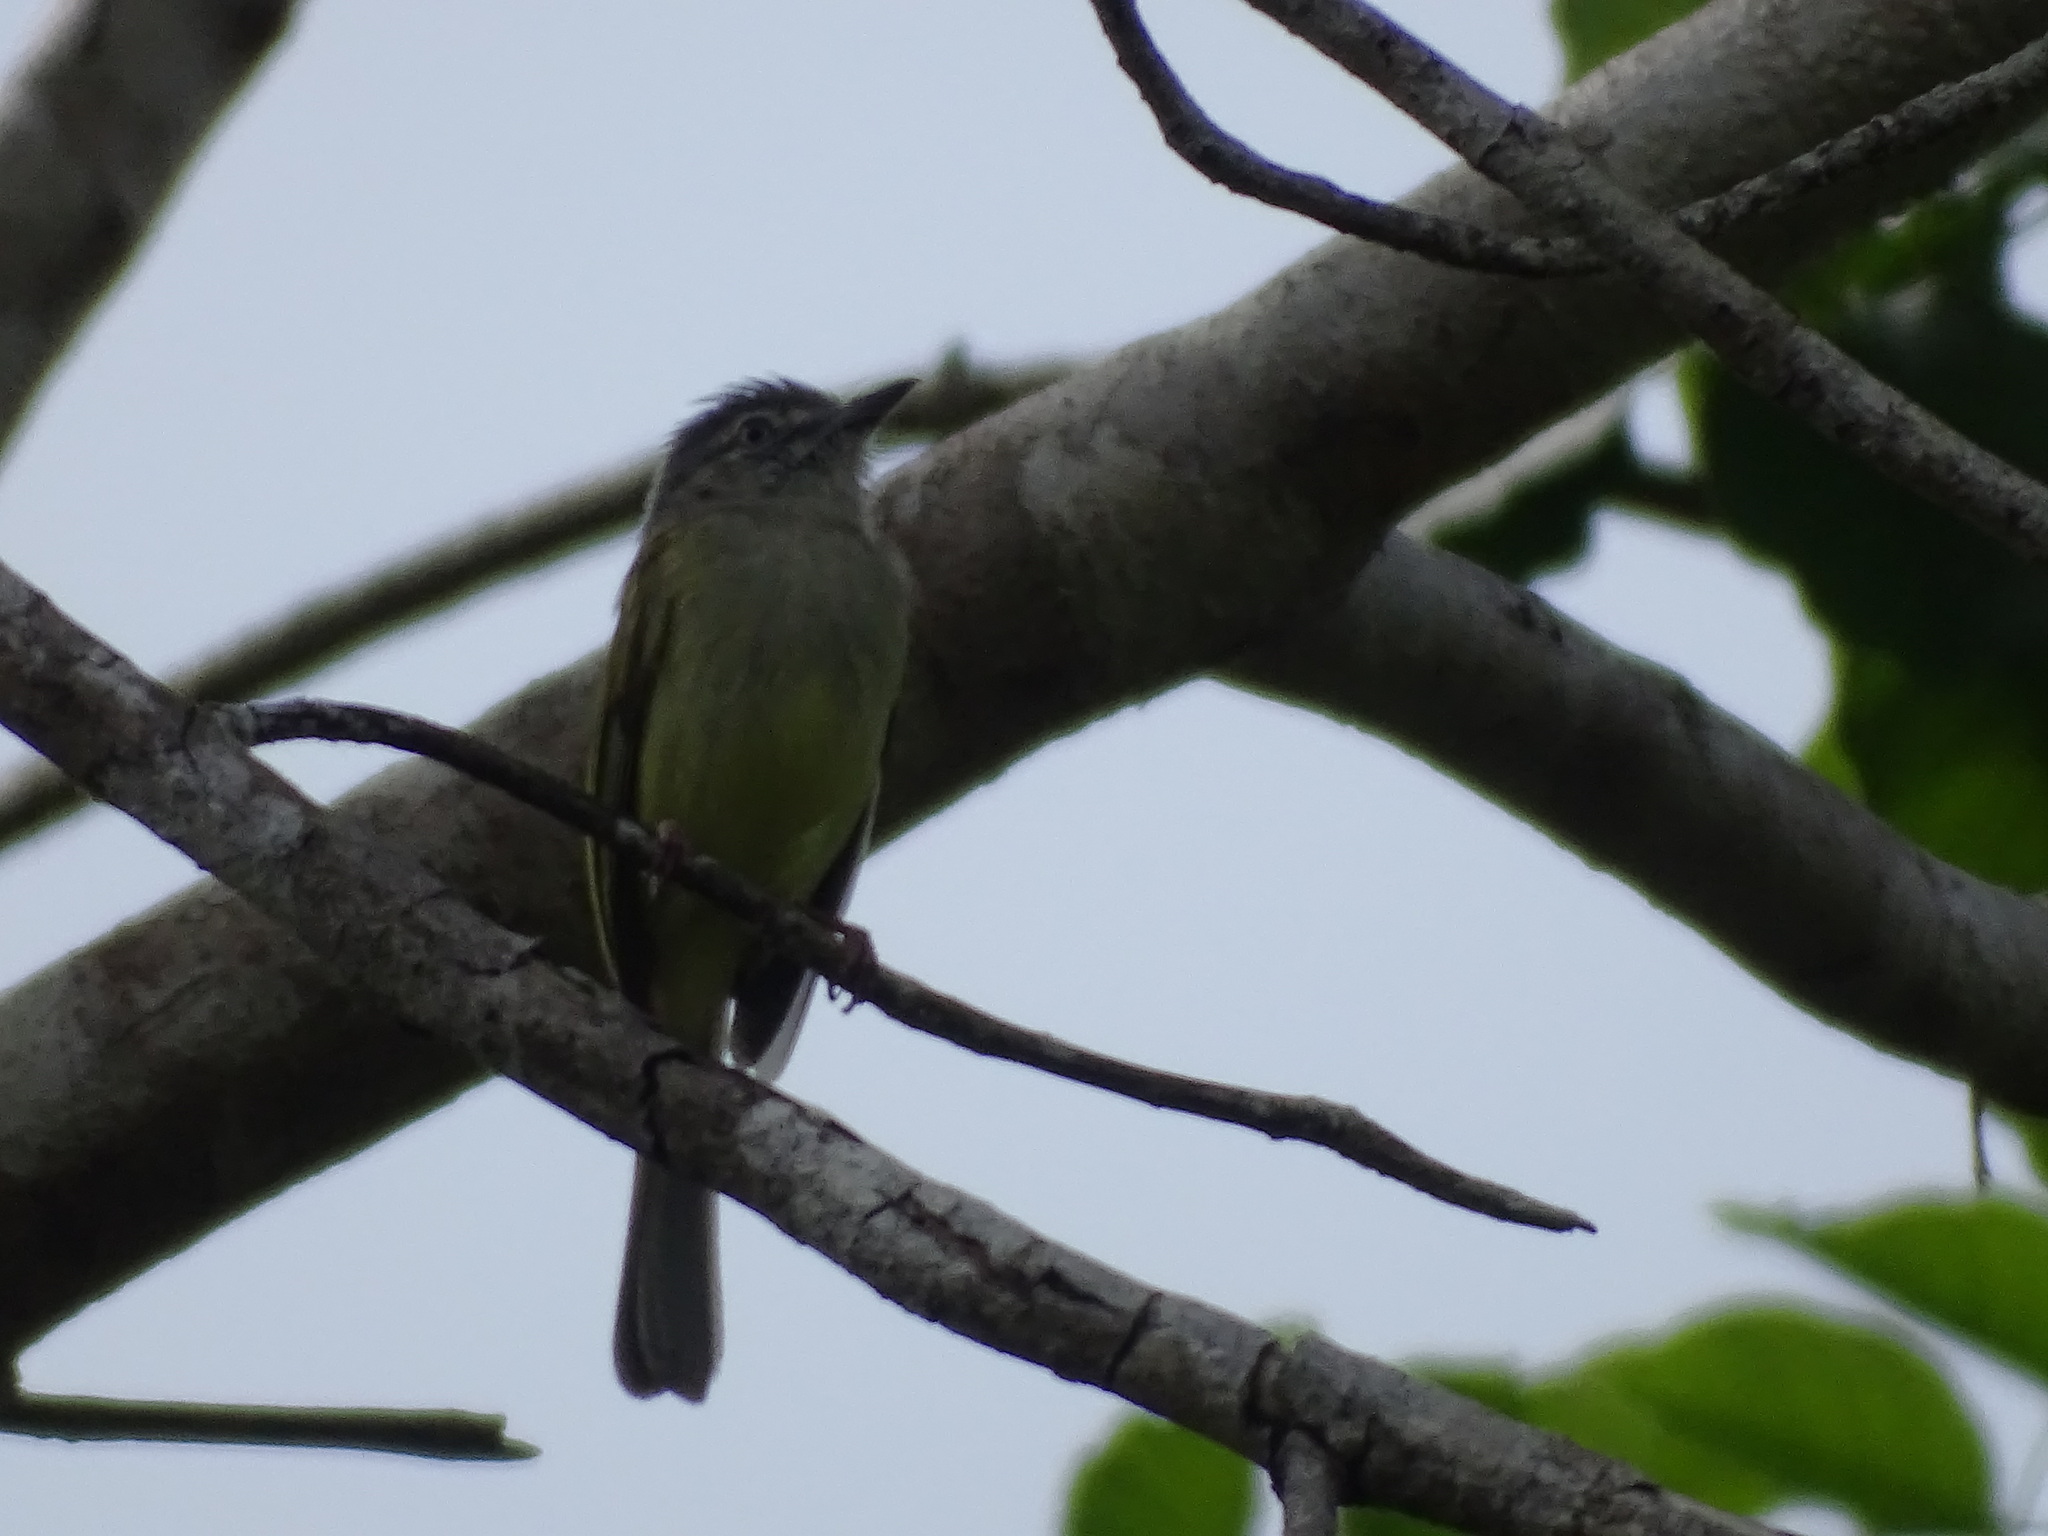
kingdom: Animalia
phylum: Chordata
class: Aves
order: Passeriformes
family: Tyrannidae
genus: Tolmomyias
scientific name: Tolmomyias sulphurescens
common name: Yellow-olive flycatcher
